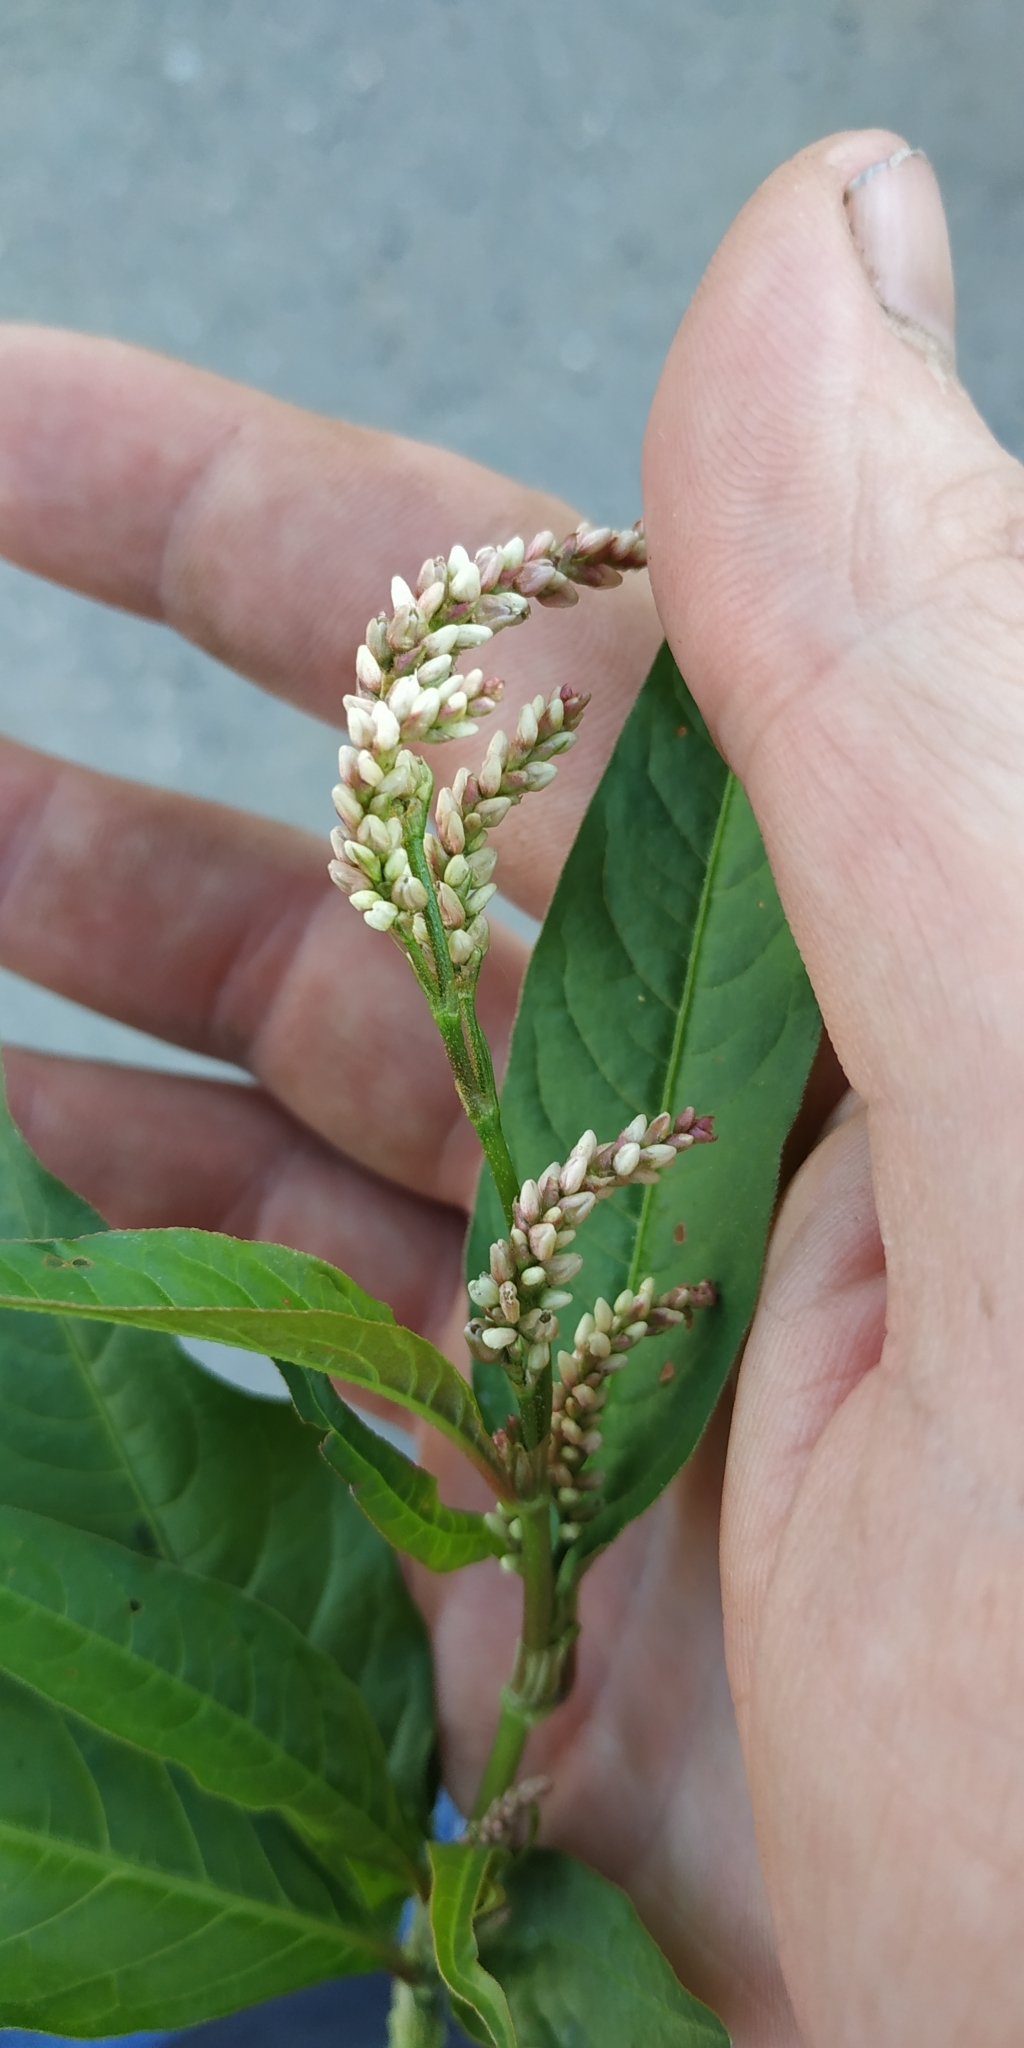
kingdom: Plantae
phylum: Tracheophyta
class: Magnoliopsida
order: Caryophyllales
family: Polygonaceae
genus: Persicaria
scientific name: Persicaria lapathifolia
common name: Curlytop knotweed
